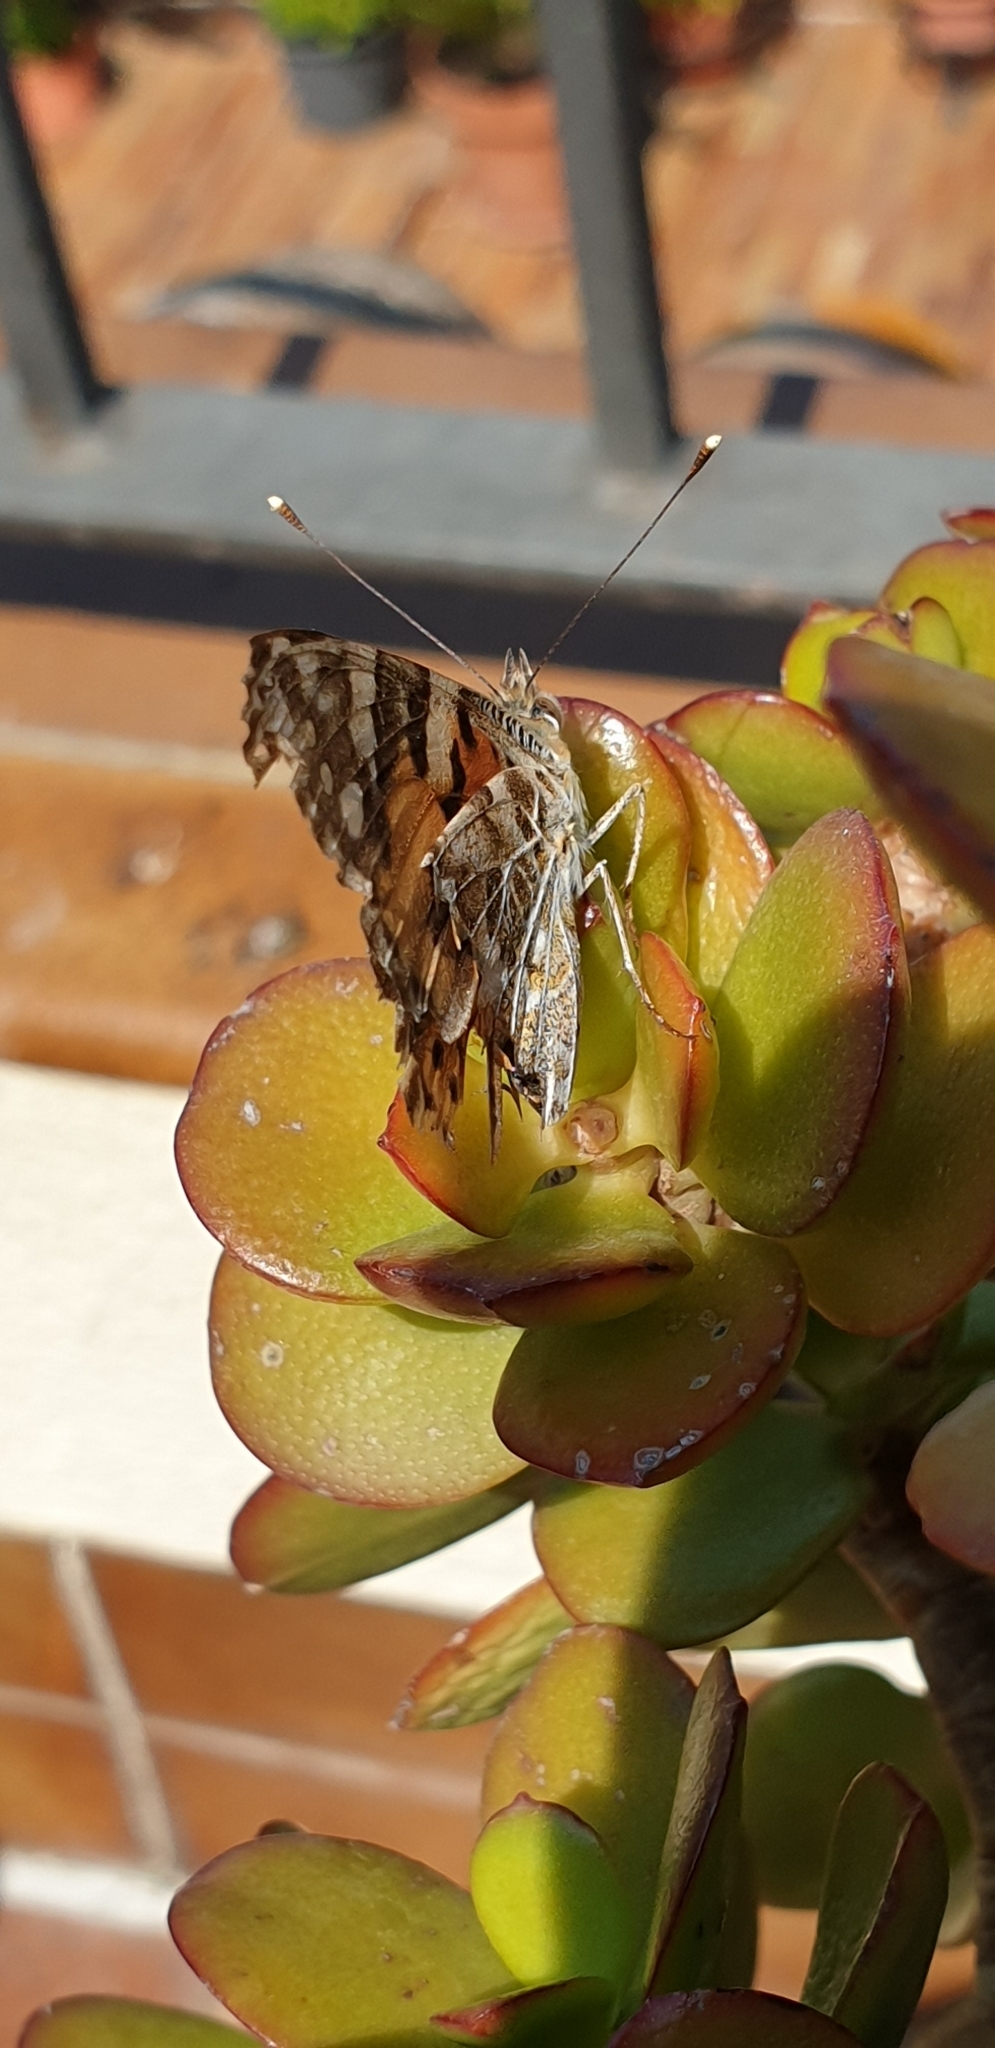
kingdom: Animalia
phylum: Arthropoda
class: Insecta
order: Lepidoptera
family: Nymphalidae
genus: Vanessa
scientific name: Vanessa cardui
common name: Painted lady
